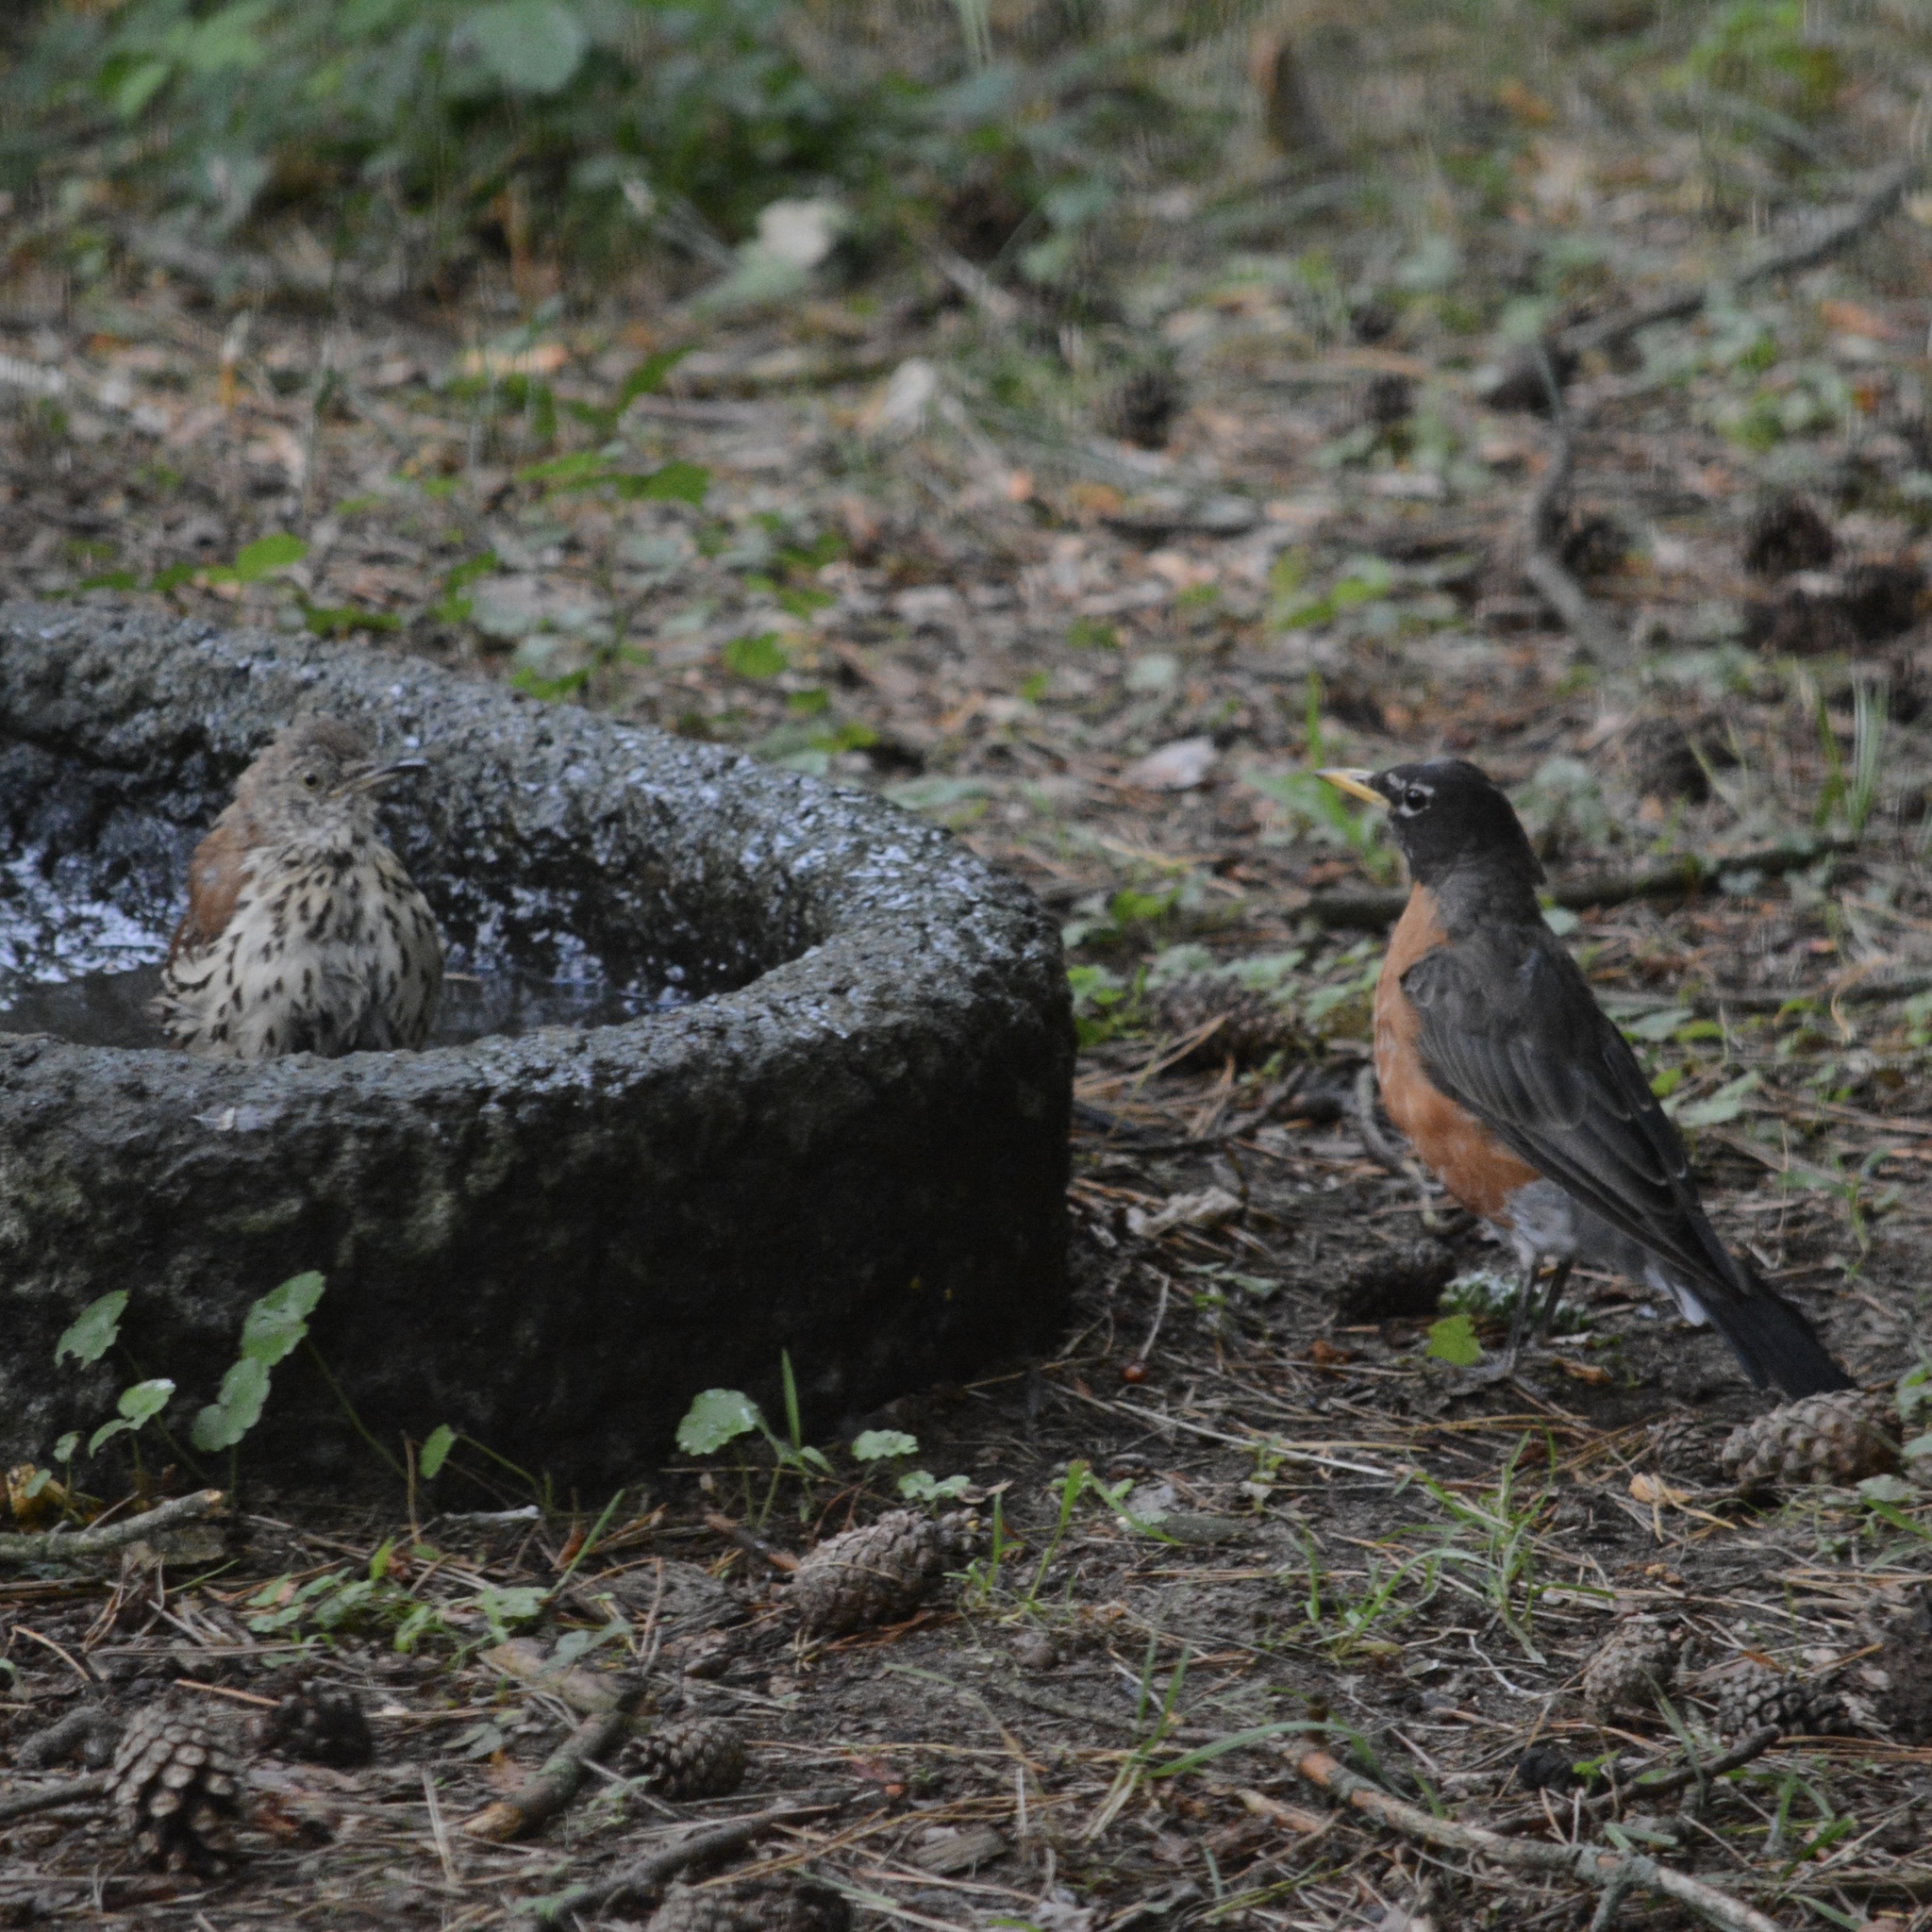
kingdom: Animalia
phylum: Chordata
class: Aves
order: Passeriformes
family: Mimidae
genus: Toxostoma
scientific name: Toxostoma rufum
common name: Brown thrasher
